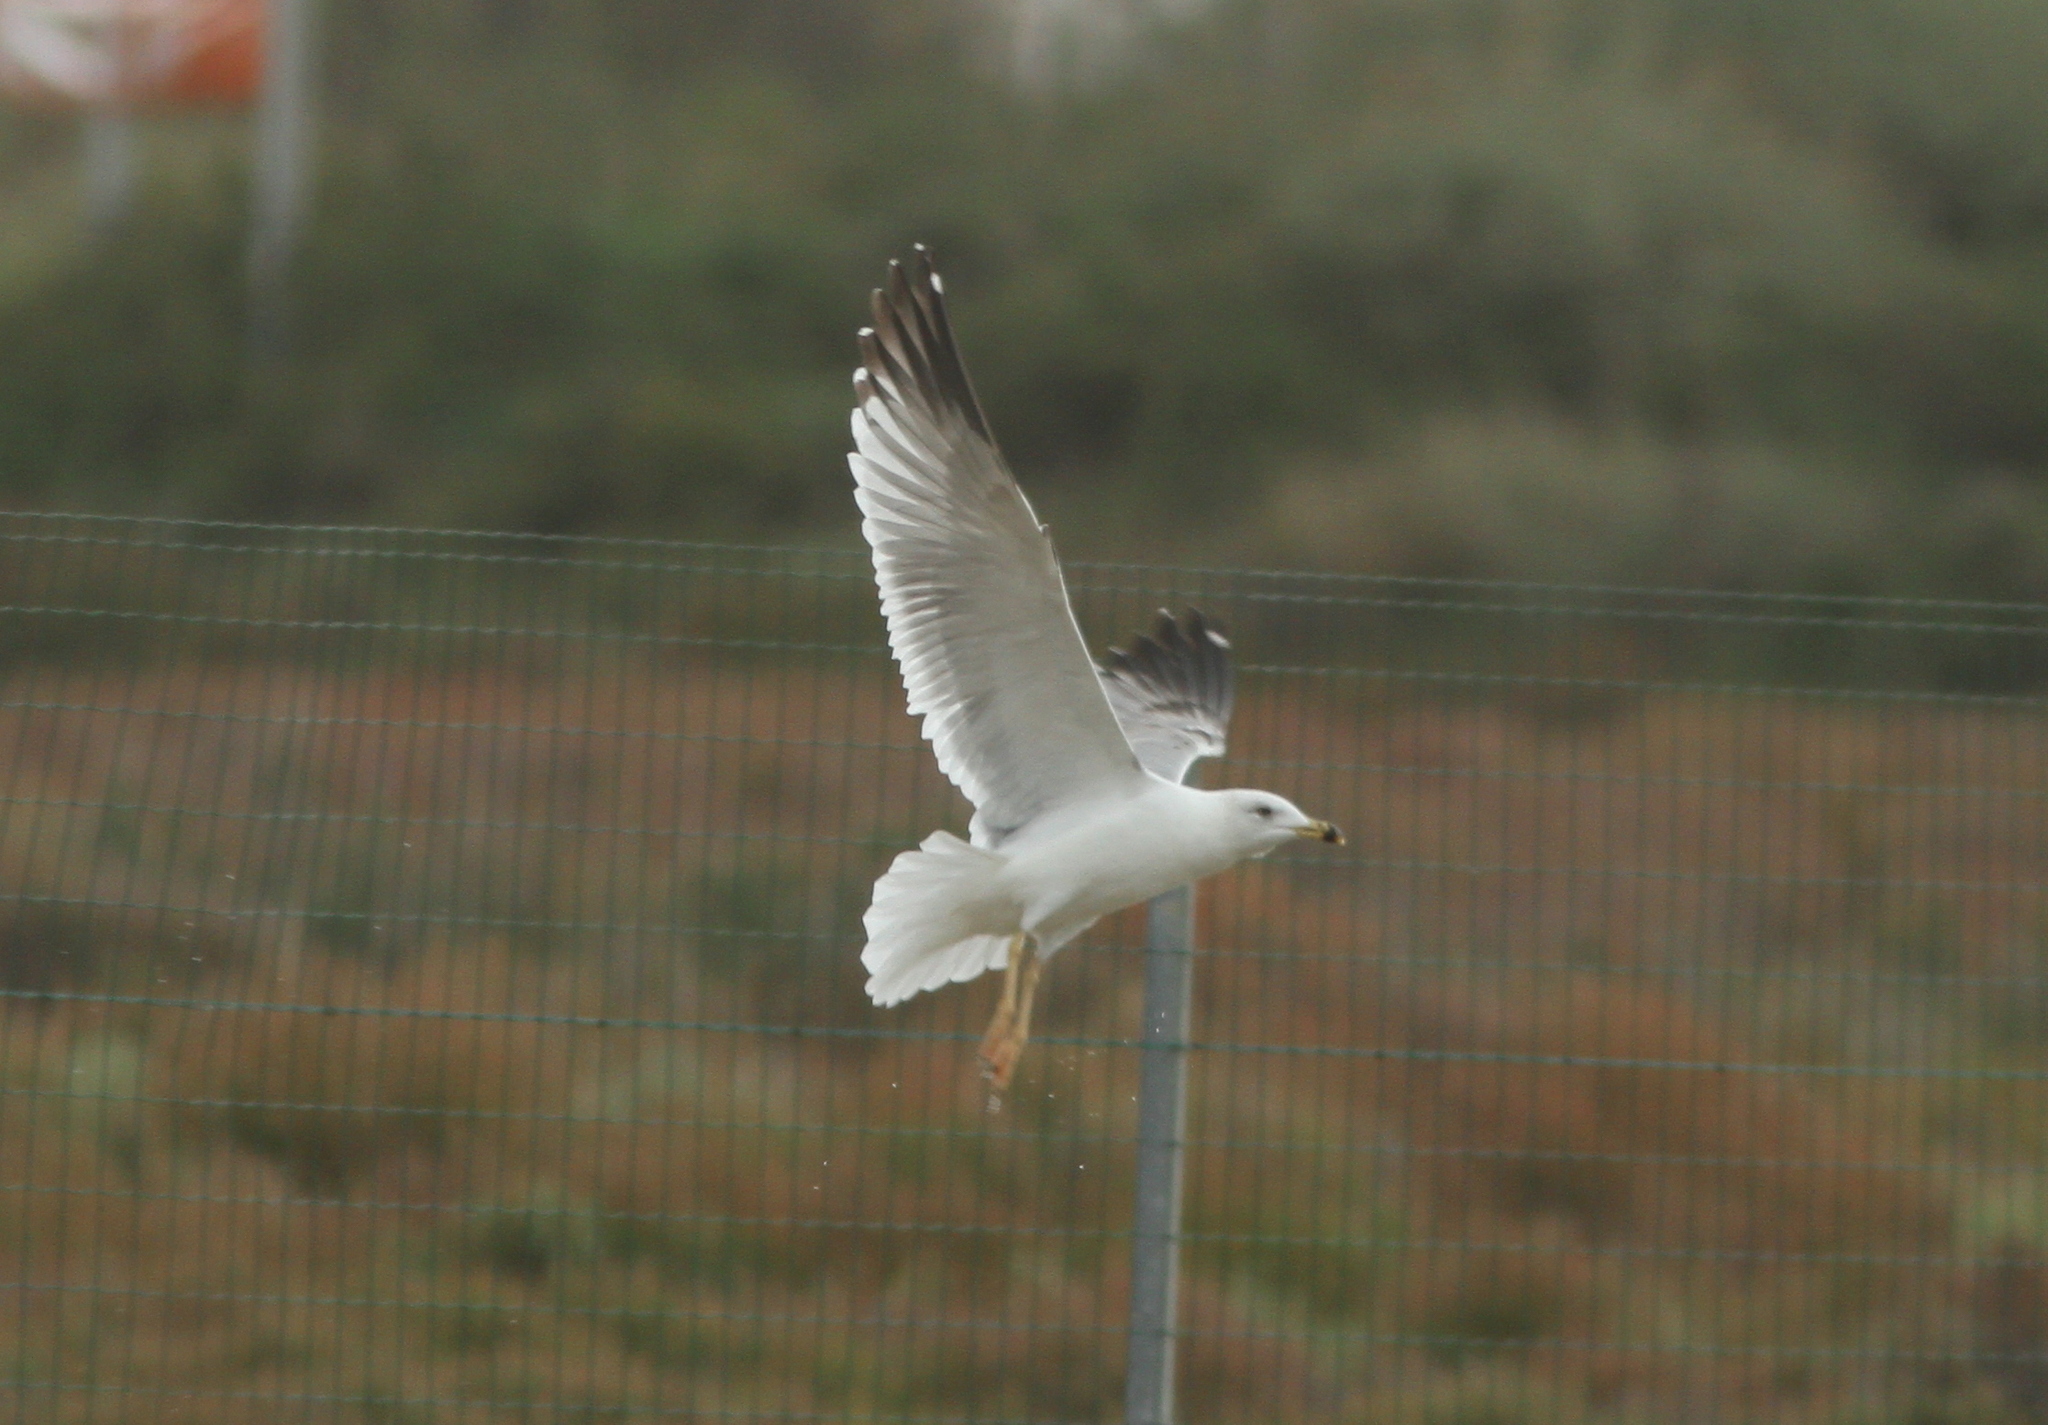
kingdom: Animalia
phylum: Chordata
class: Aves
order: Charadriiformes
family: Laridae
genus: Larus
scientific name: Larus michahellis
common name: Yellow-legged gull
